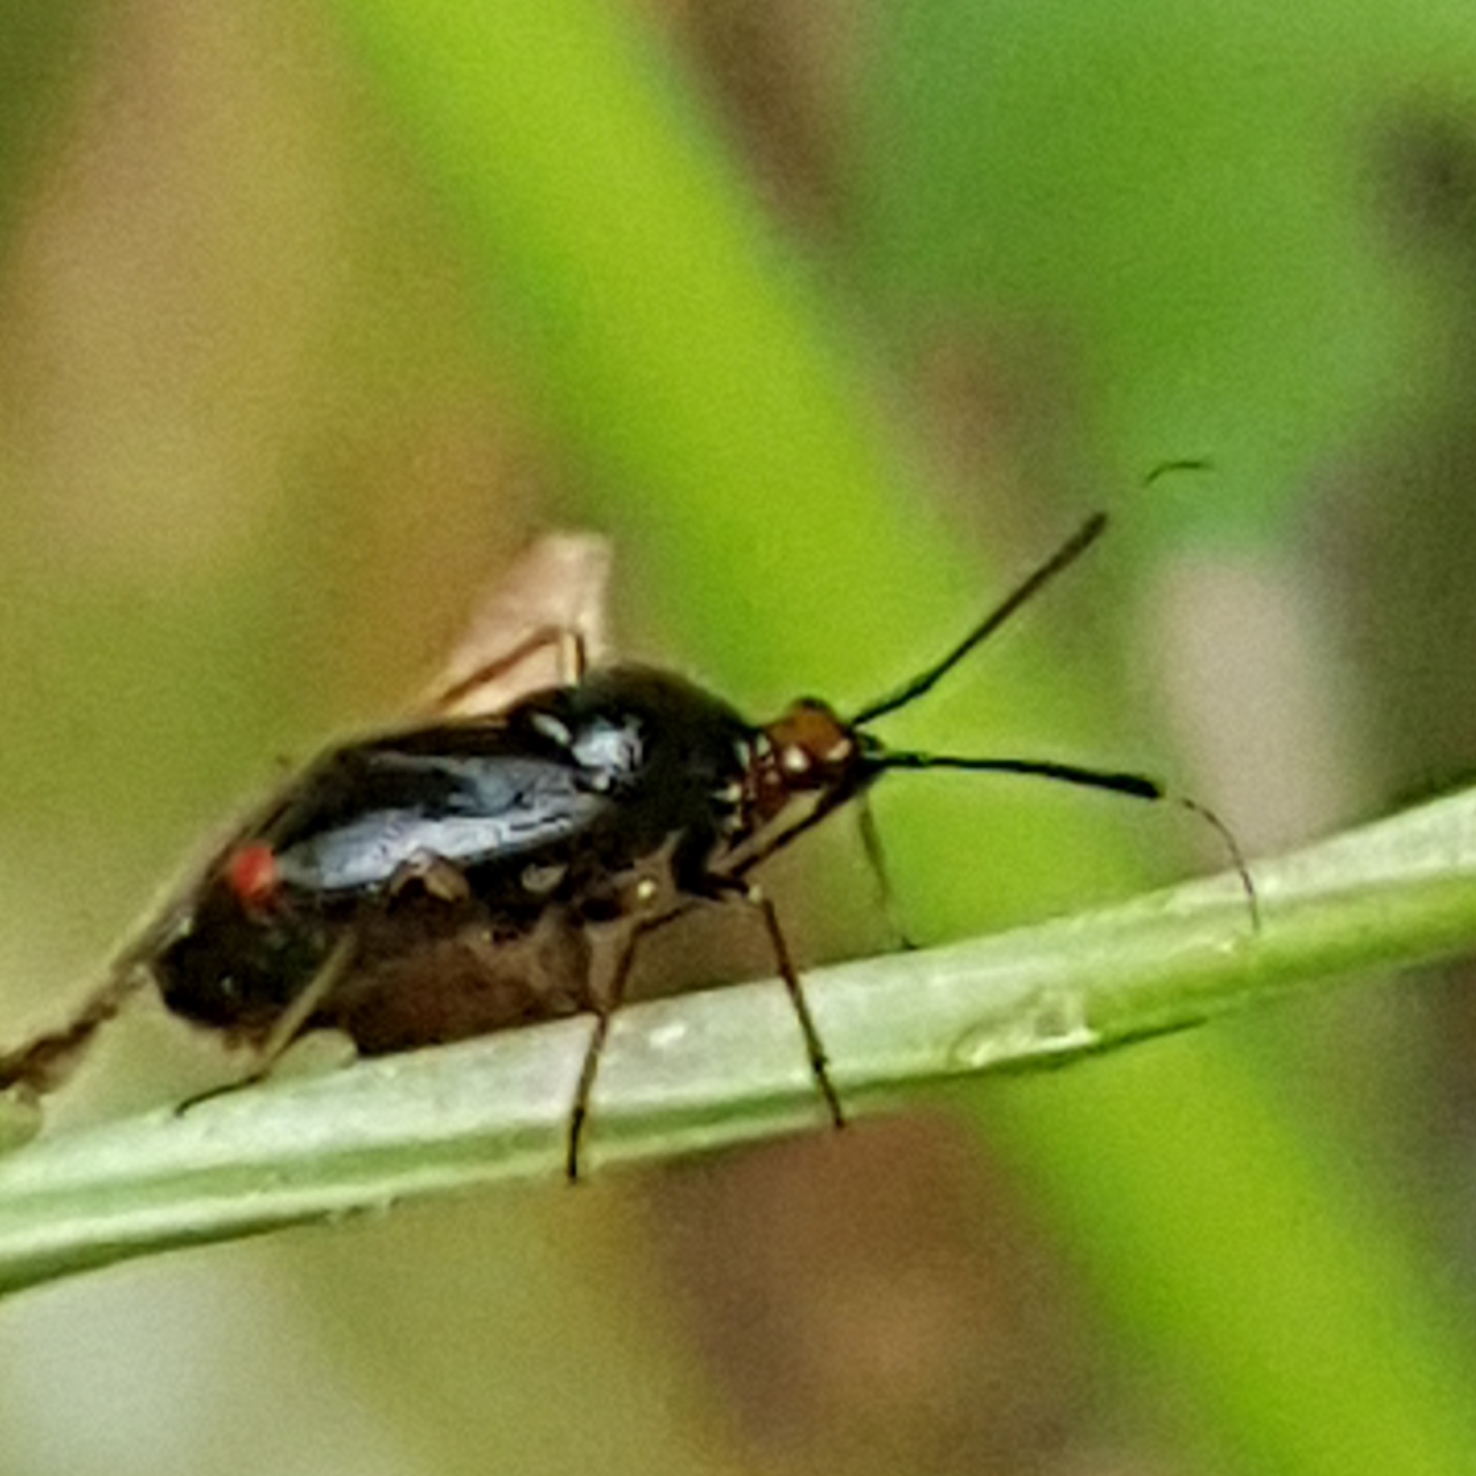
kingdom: Animalia
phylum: Arthropoda
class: Insecta
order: Hemiptera
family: Miridae
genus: Deraeocoris
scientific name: Deraeocoris ruber
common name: Plant bug
